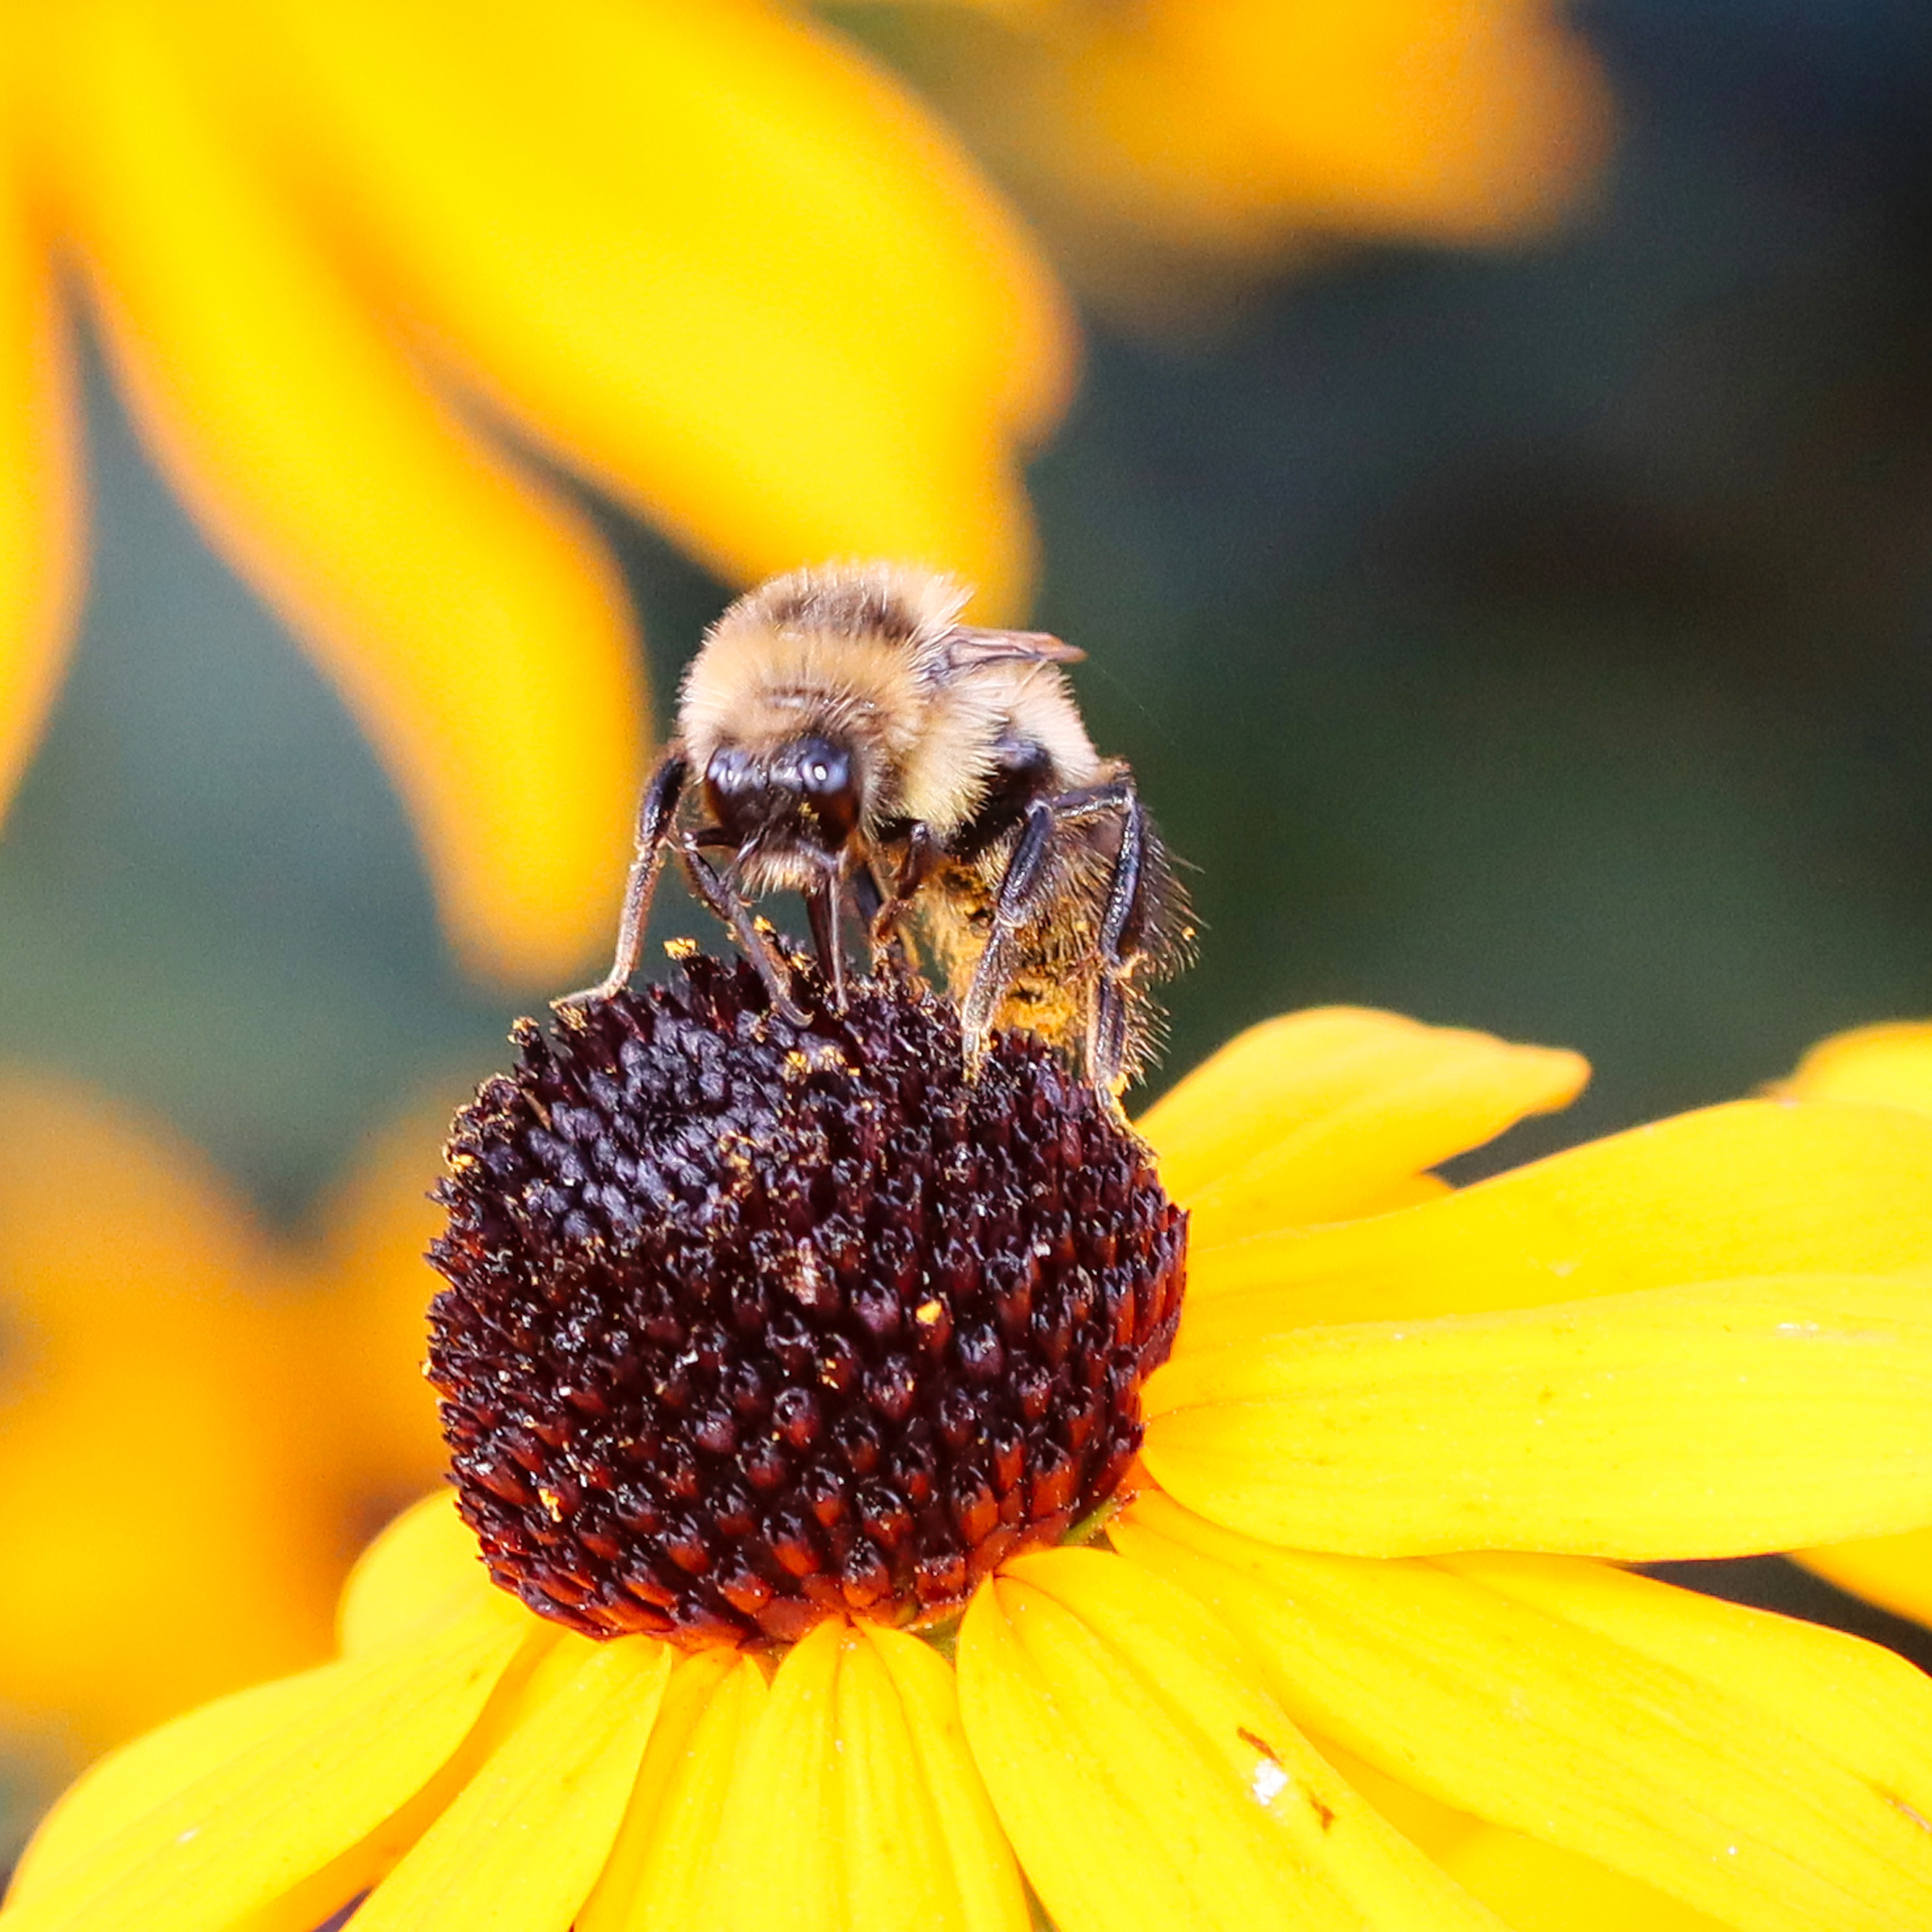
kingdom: Animalia
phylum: Arthropoda
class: Insecta
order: Hymenoptera
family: Apidae
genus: Bombus
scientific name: Bombus rufocinctus
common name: Red-belted bumble bee
